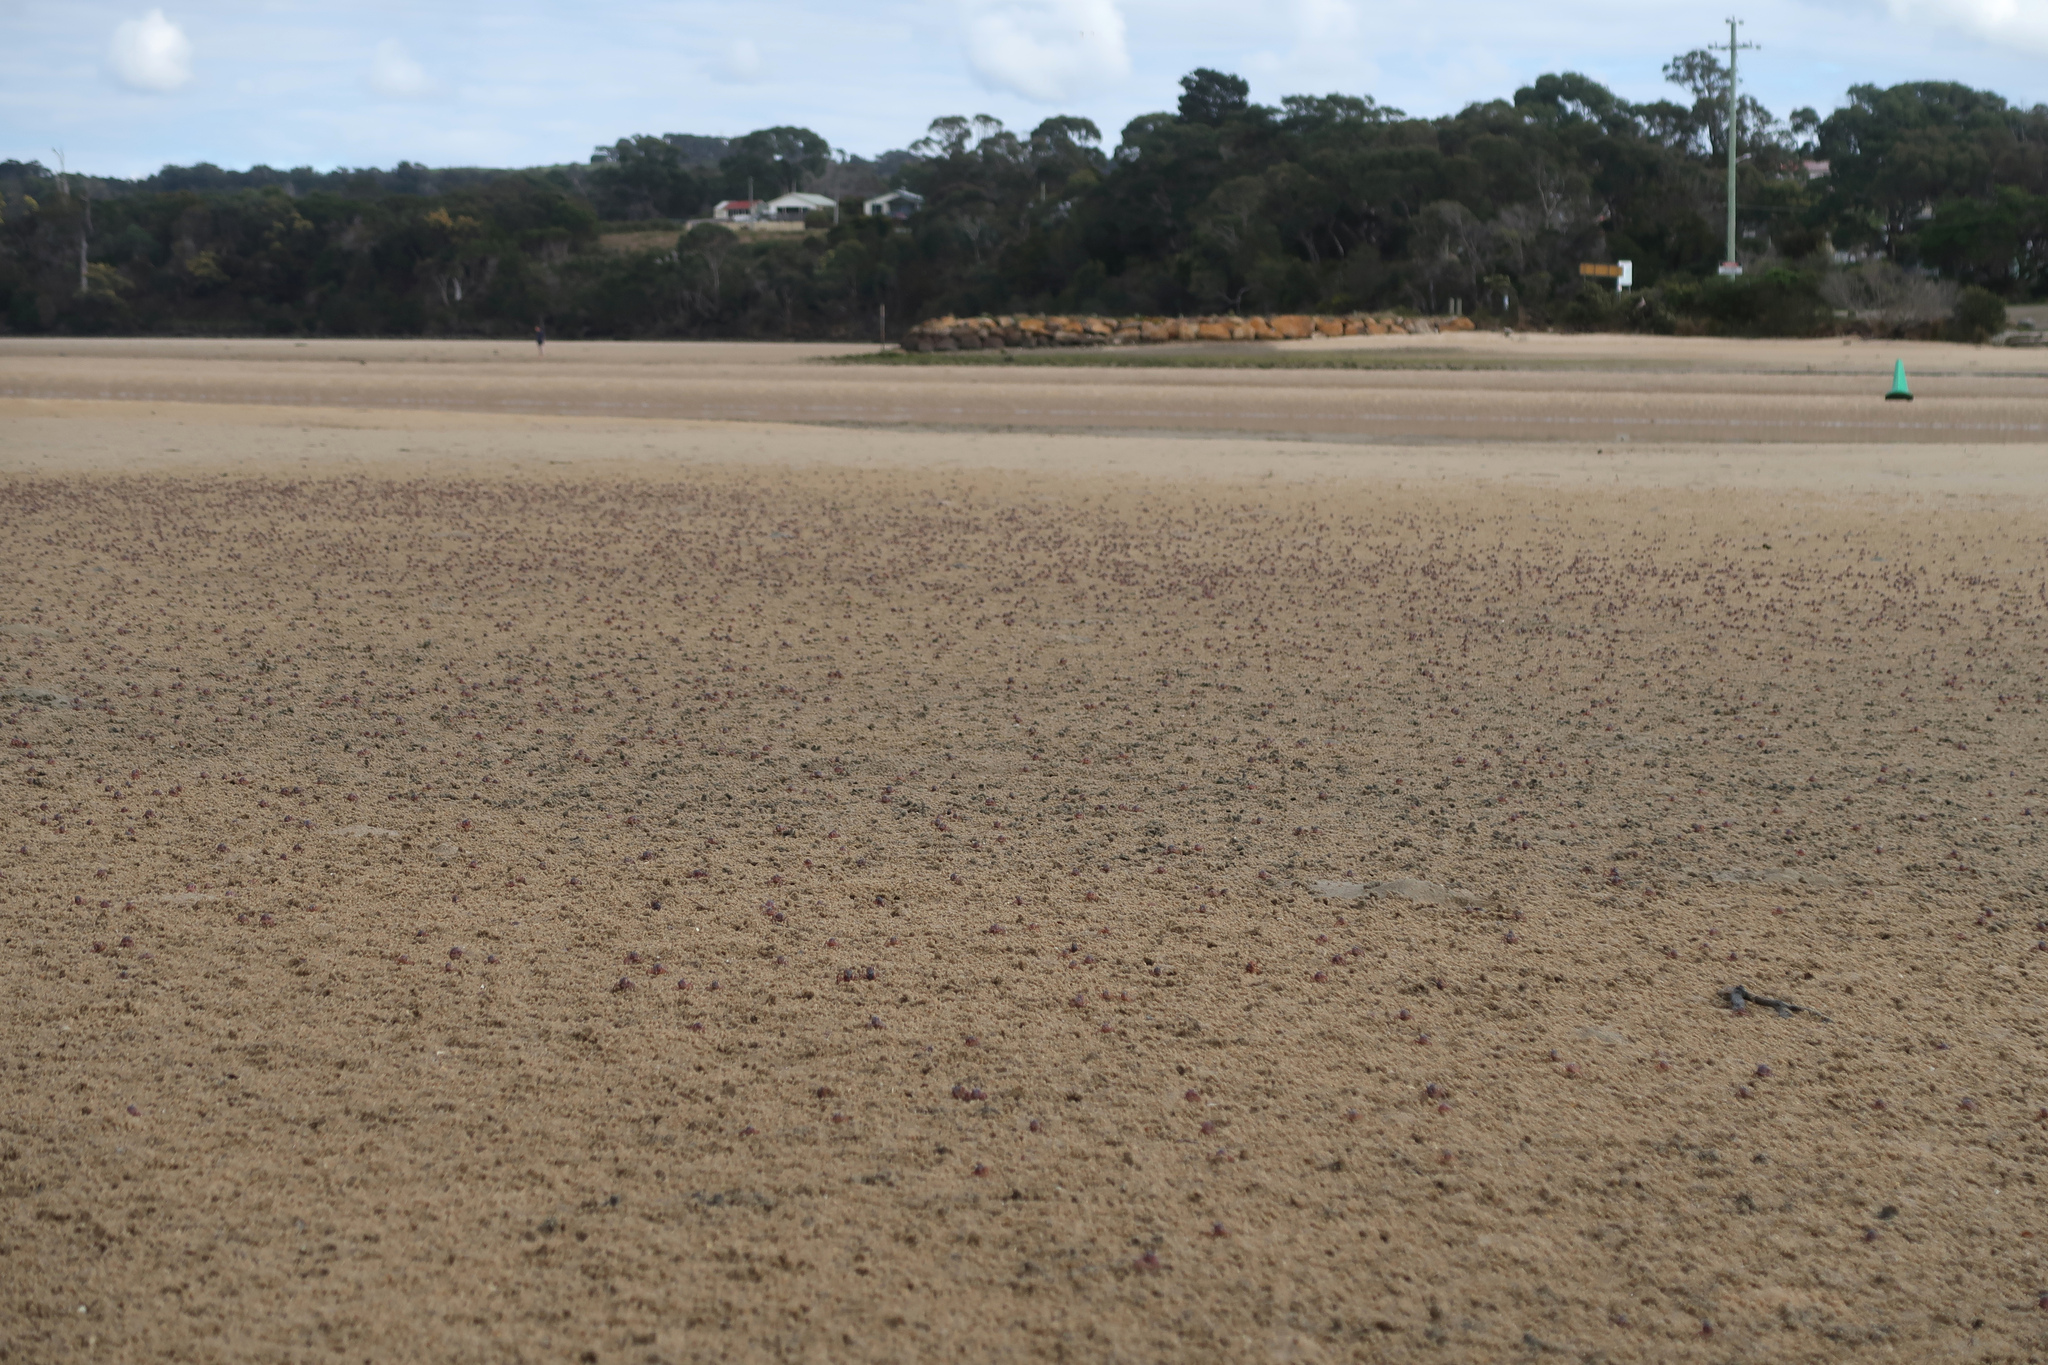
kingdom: Animalia
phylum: Arthropoda
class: Malacostraca
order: Decapoda
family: Mictyridae
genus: Mictyris
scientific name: Mictyris platycheles
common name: Dark blue soldier crab
